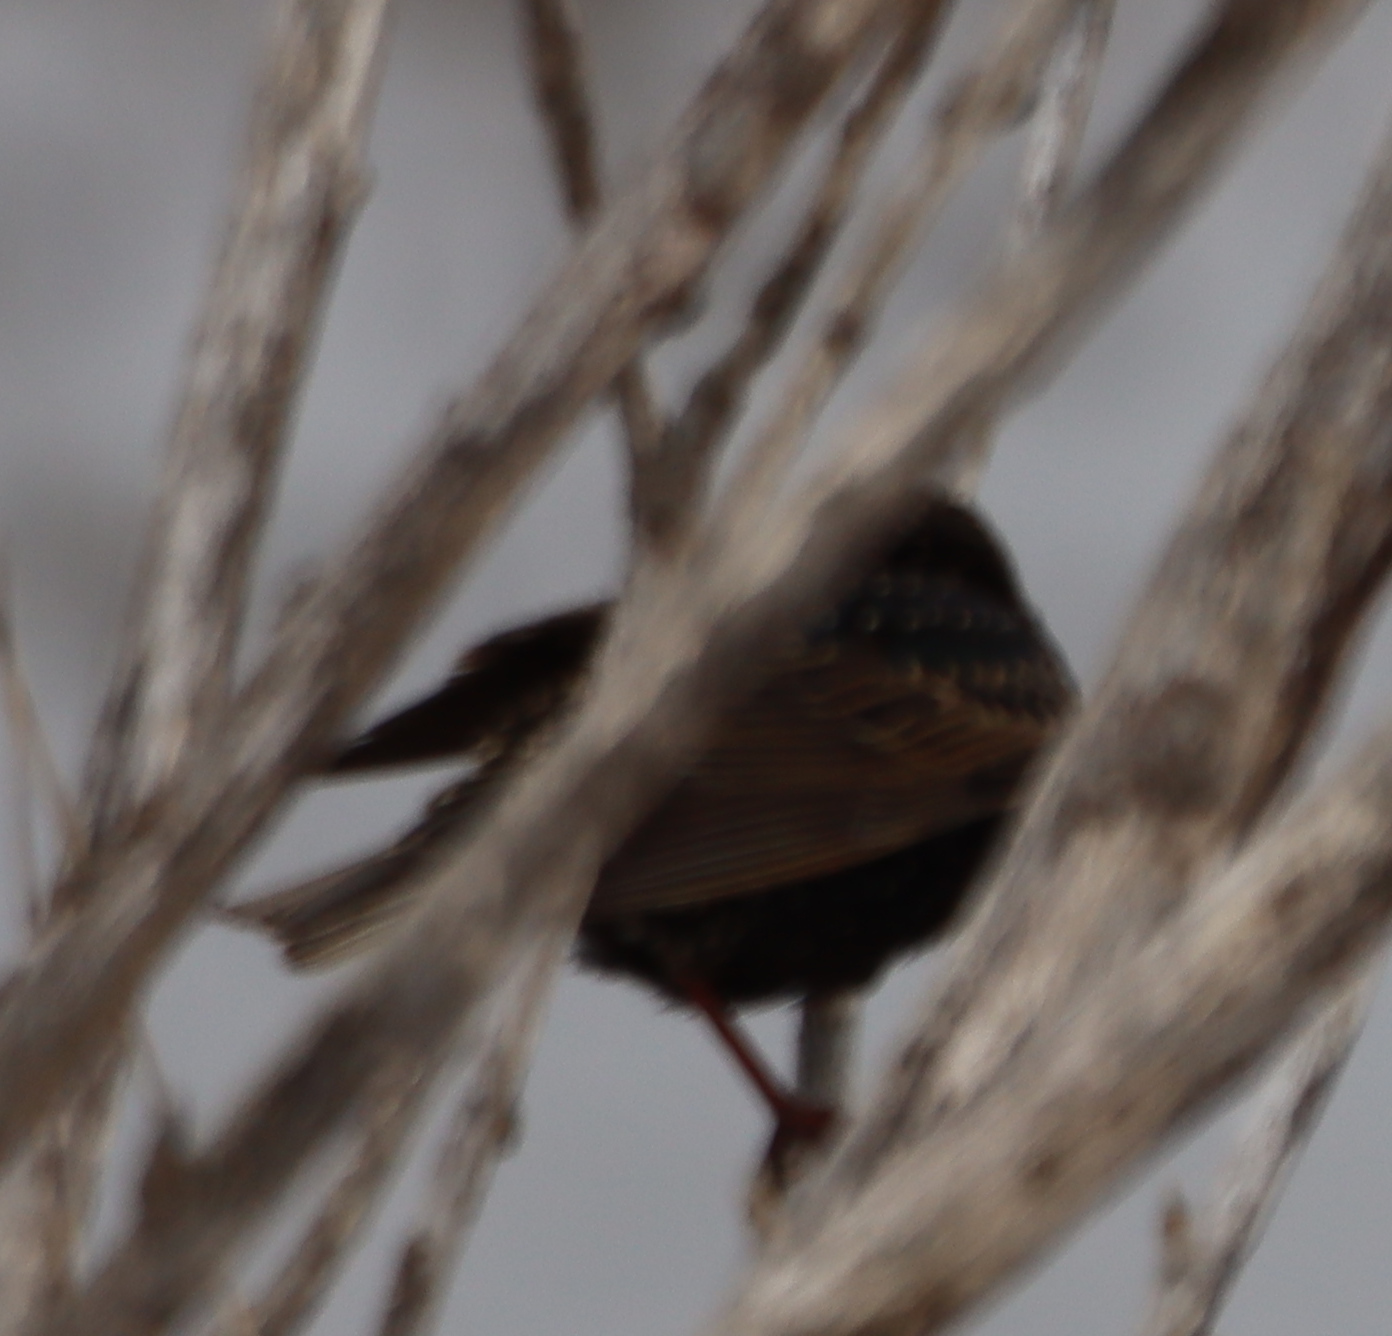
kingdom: Animalia
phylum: Chordata
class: Aves
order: Passeriformes
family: Sturnidae
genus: Sturnus
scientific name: Sturnus vulgaris
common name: Common starling
